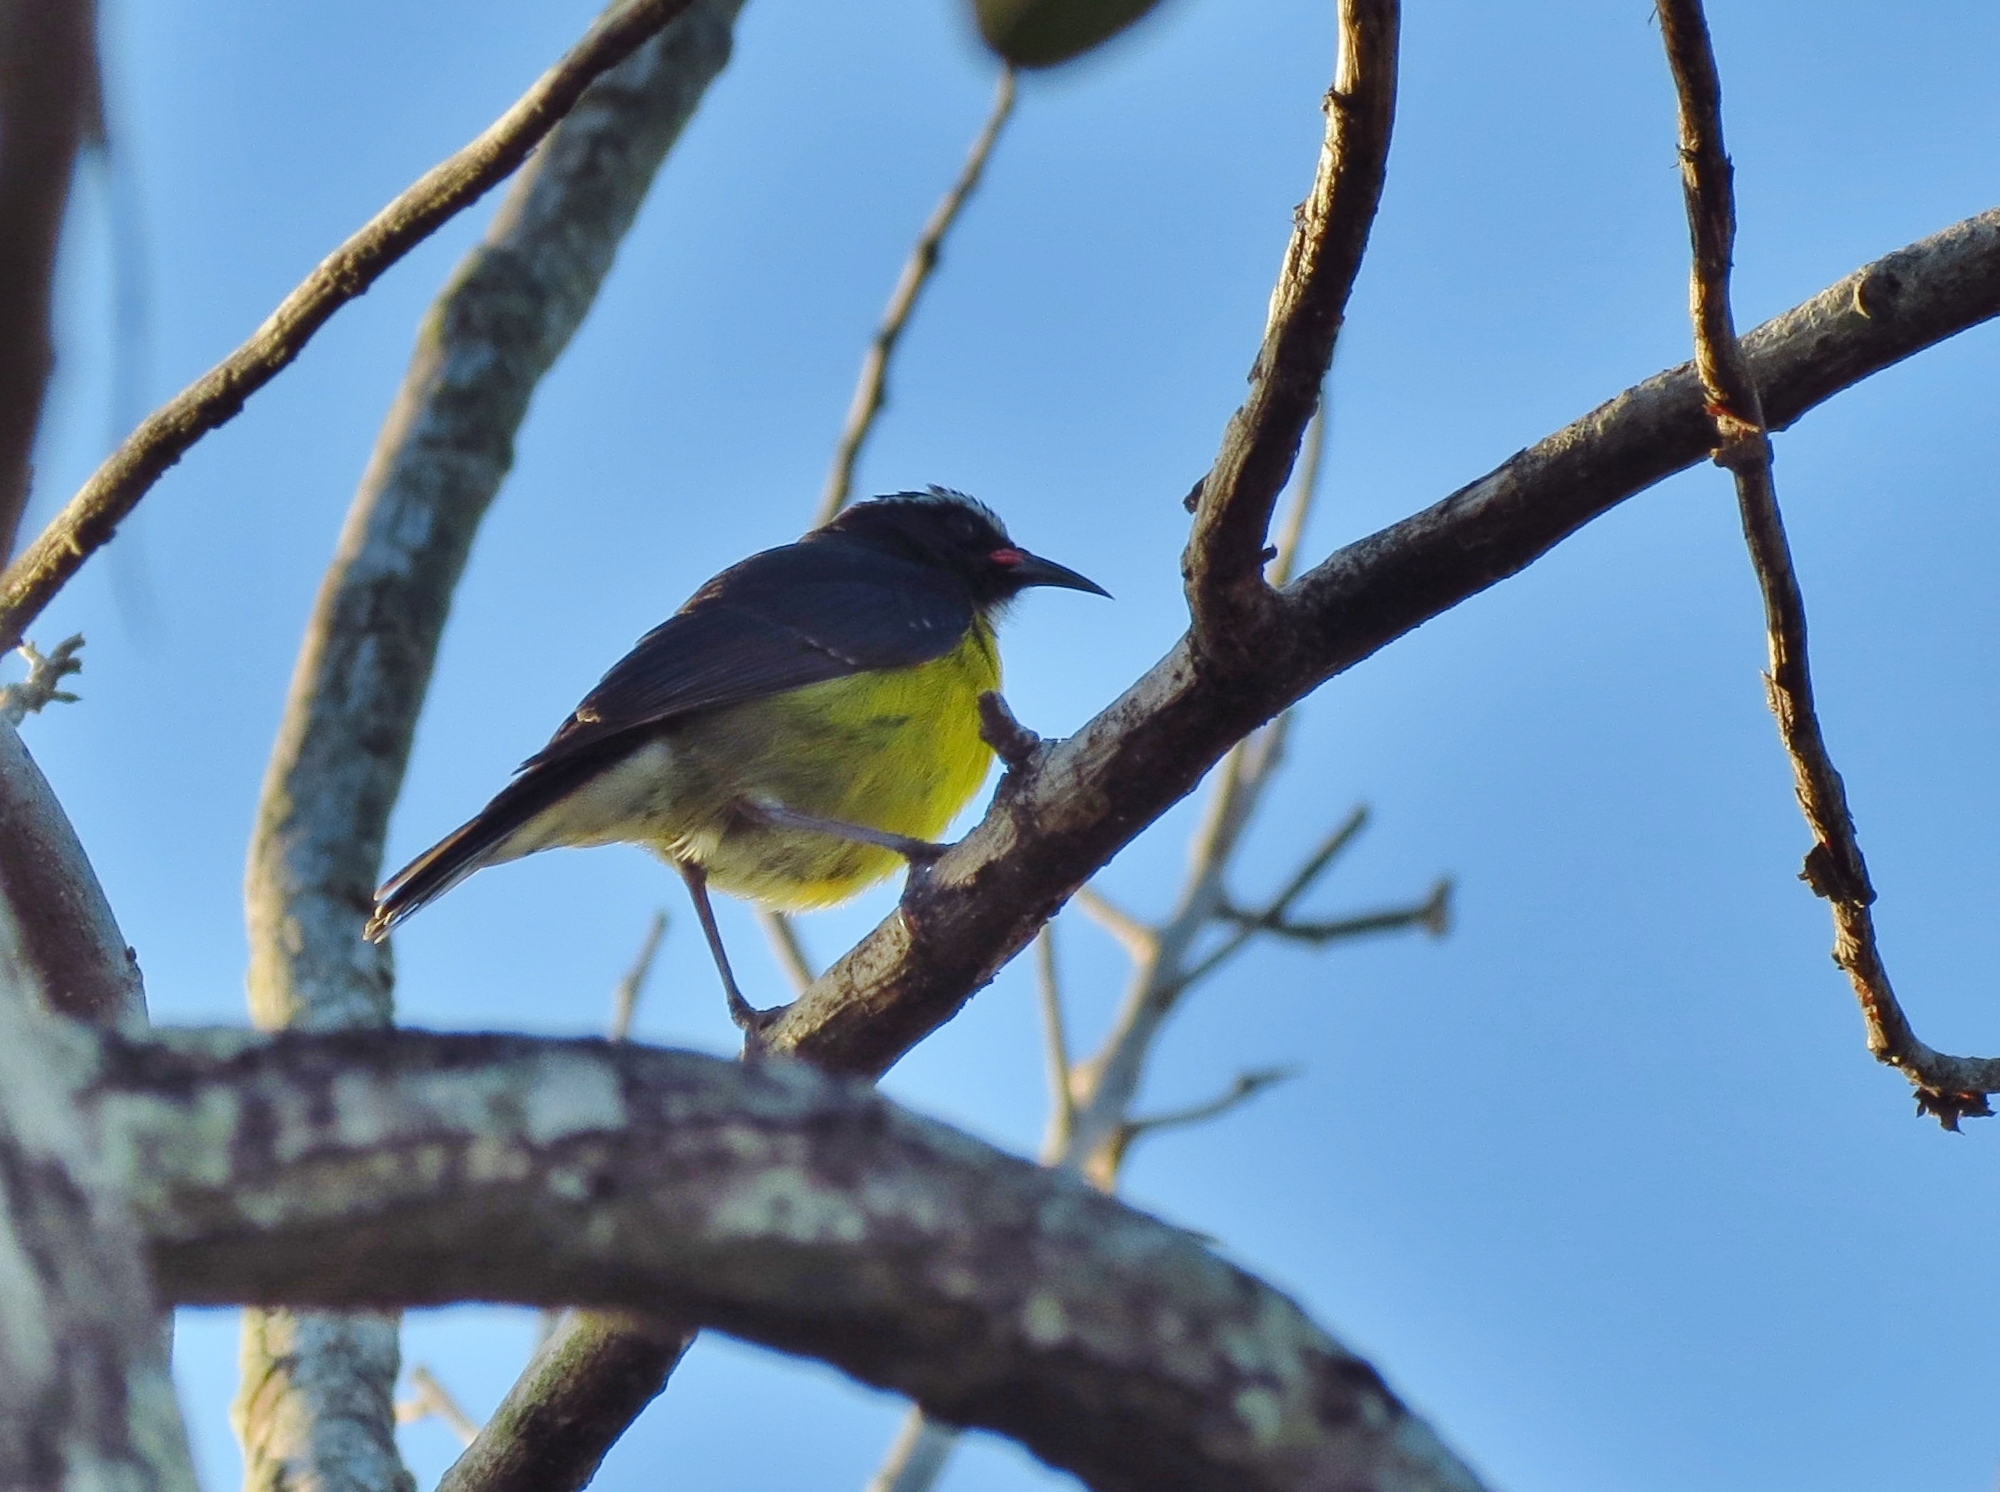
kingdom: Animalia
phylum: Chordata
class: Aves
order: Passeriformes
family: Thraupidae
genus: Coereba
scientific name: Coereba flaveola
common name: Bananaquit
